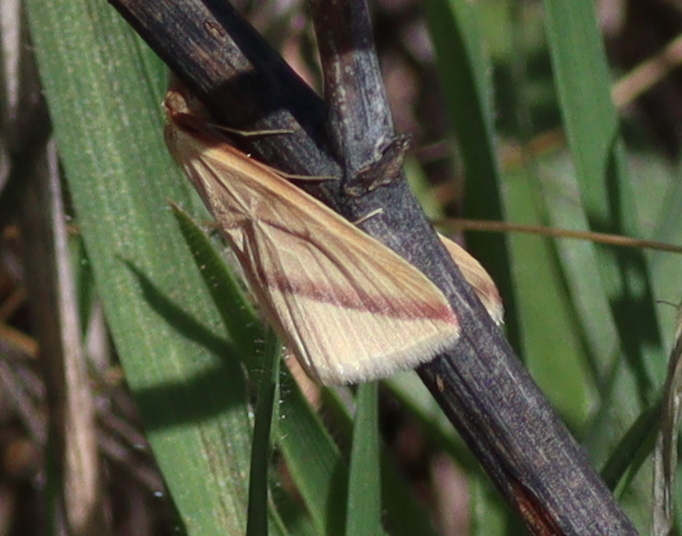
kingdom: Animalia
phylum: Arthropoda
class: Insecta
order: Lepidoptera
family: Geometridae
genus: Rhodometra
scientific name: Rhodometra sacraria
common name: Vestal
